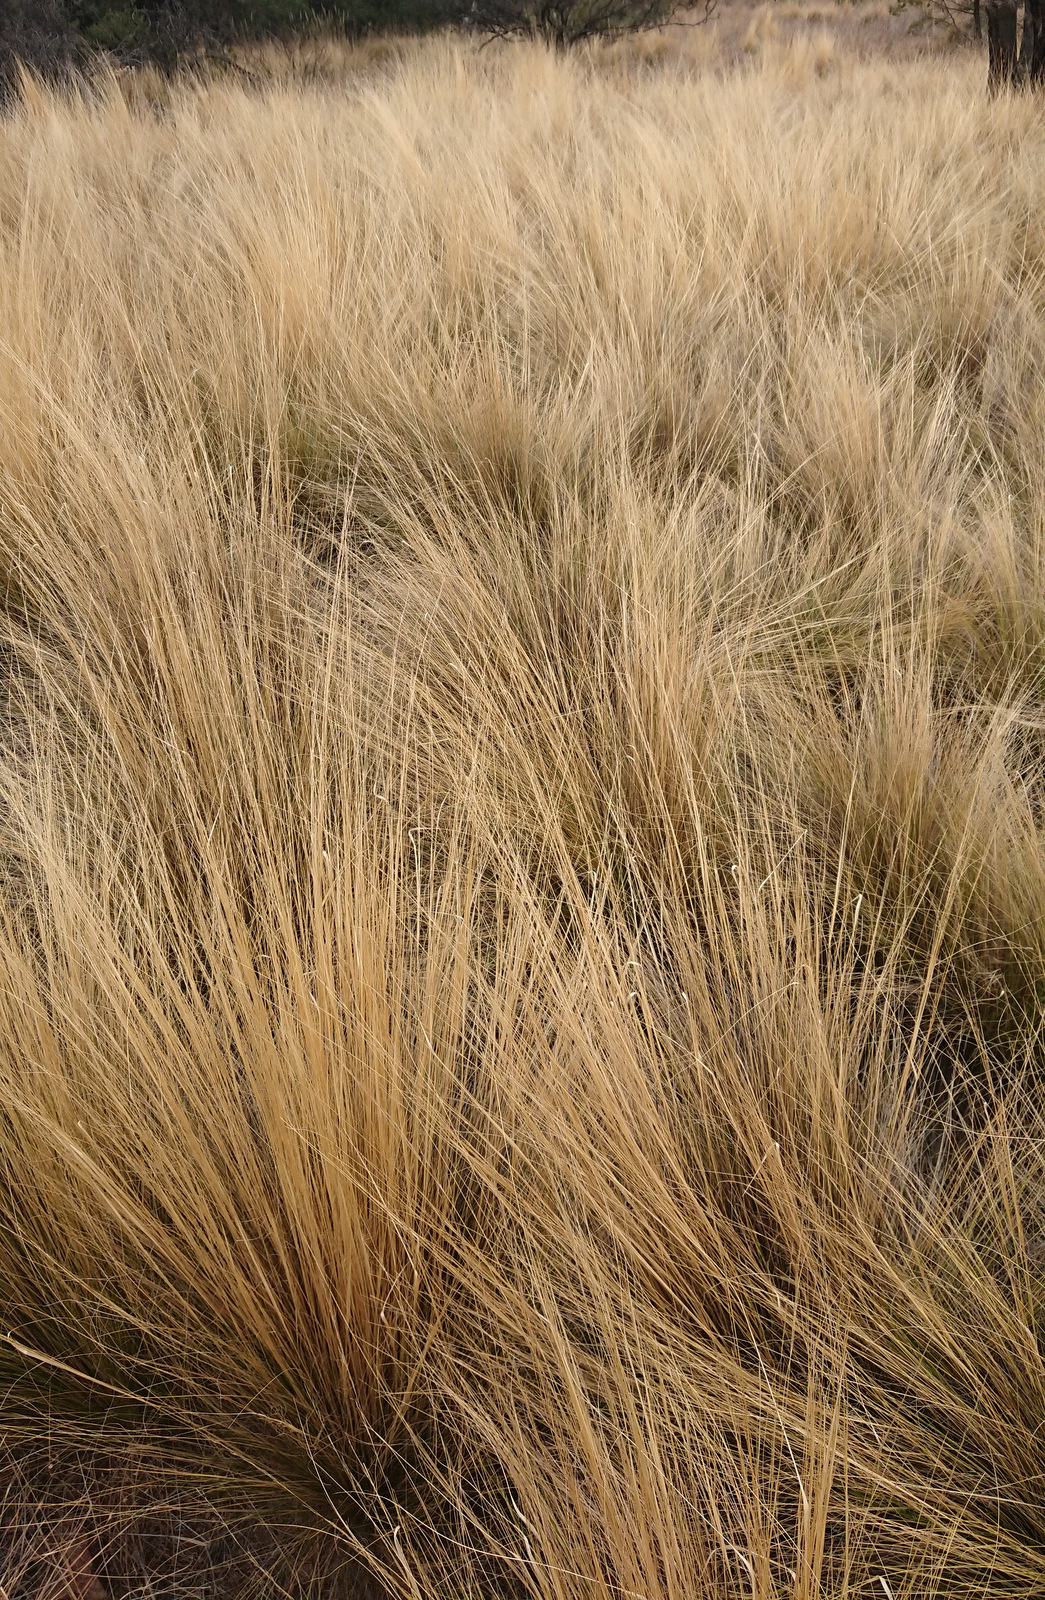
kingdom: Plantae
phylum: Tracheophyta
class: Liliopsida
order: Poales
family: Poaceae
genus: Nassella
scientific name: Nassella tenuissima
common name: Argentine needlegrass
